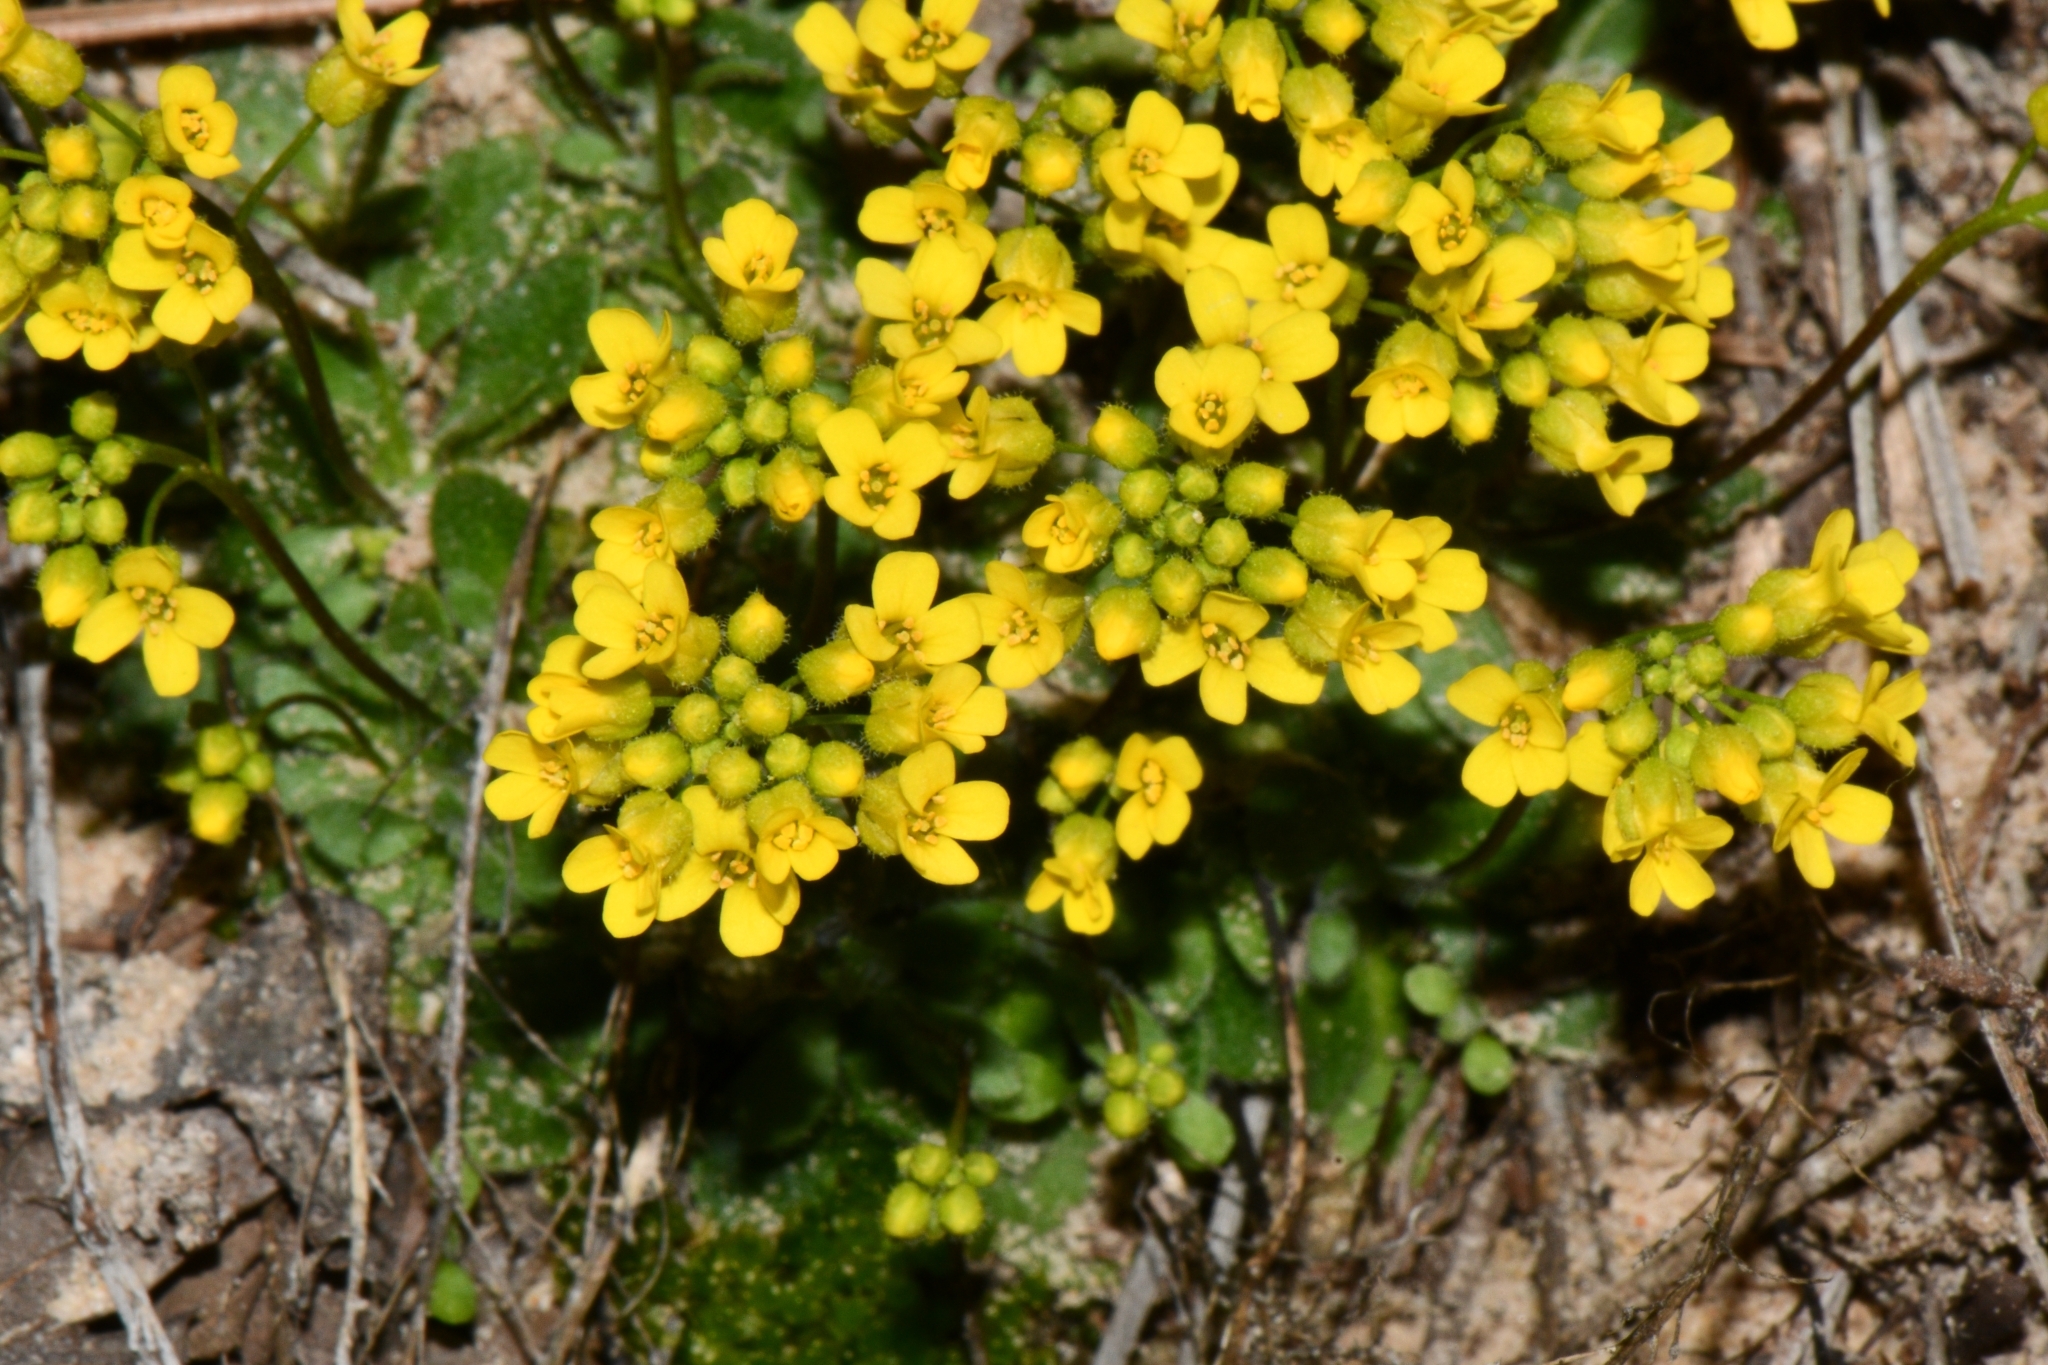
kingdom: Plantae
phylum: Tracheophyta
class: Magnoliopsida
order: Brassicales
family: Brassicaceae
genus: Draba
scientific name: Draba zionensis
